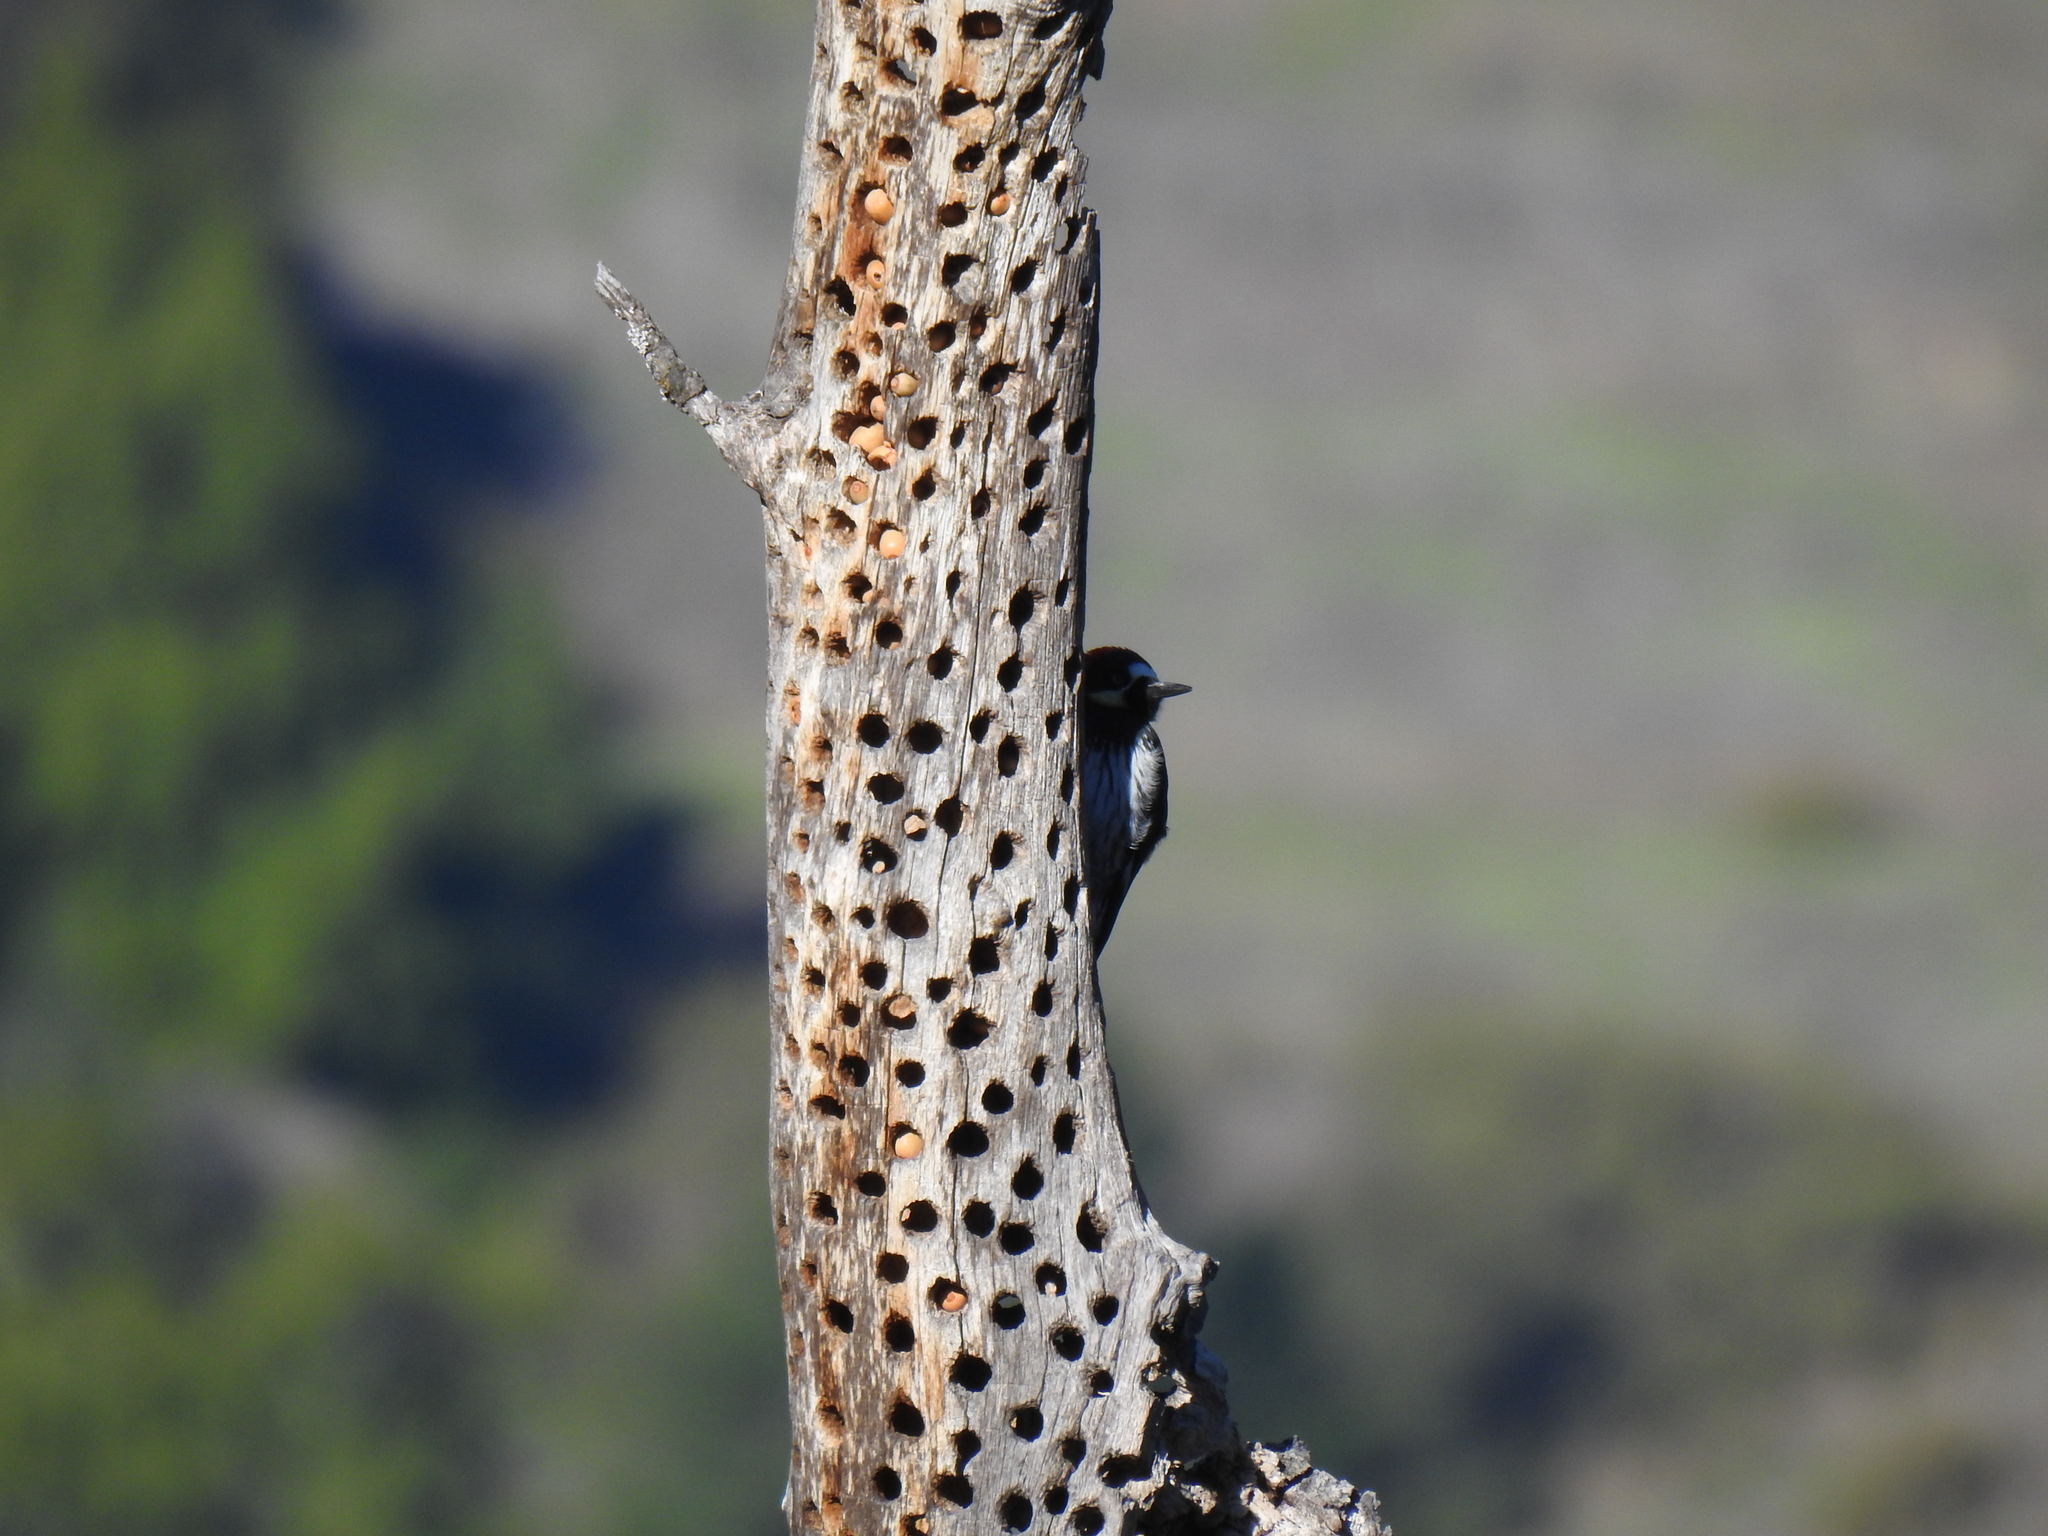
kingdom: Animalia
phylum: Chordata
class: Aves
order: Piciformes
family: Picidae
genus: Melanerpes
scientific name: Melanerpes formicivorus
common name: Acorn woodpecker
